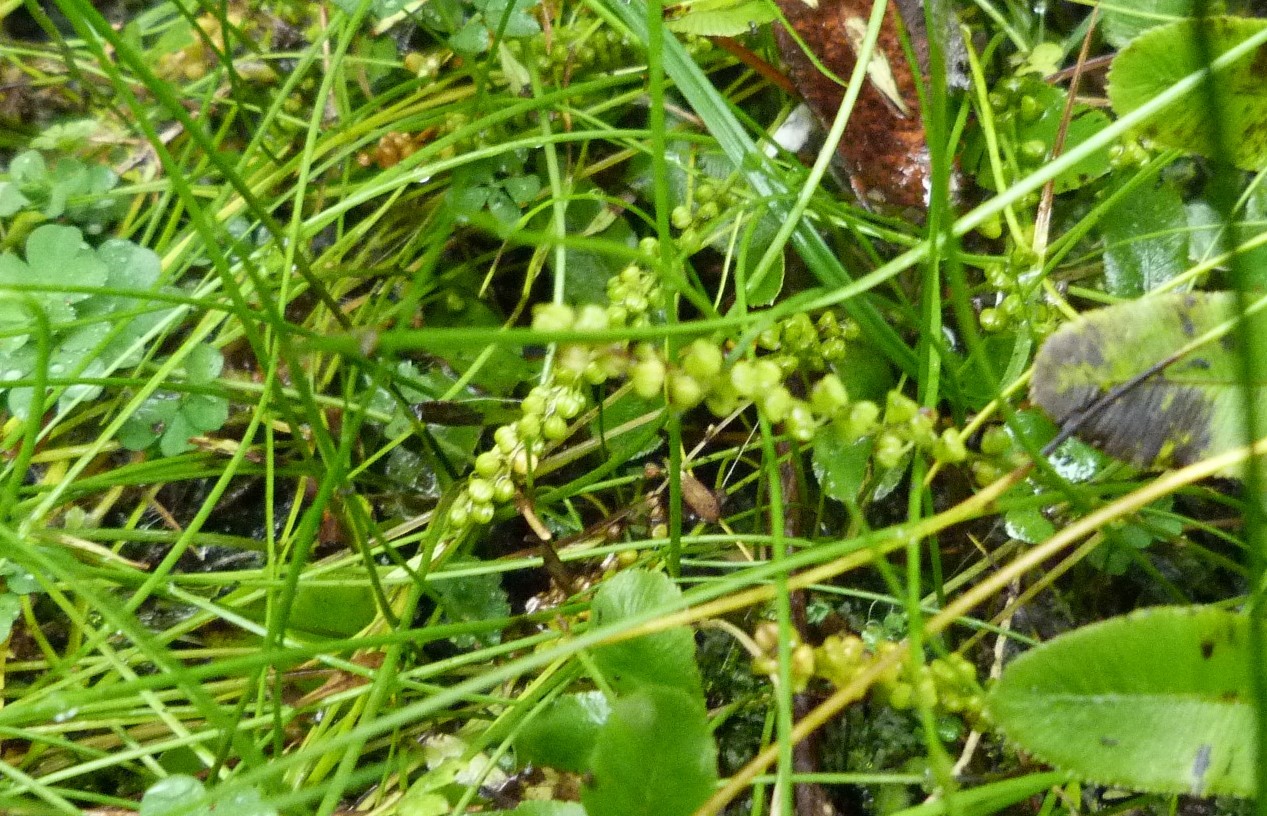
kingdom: Plantae
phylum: Tracheophyta
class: Liliopsida
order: Alismatales
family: Juncaginaceae
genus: Triglochin
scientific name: Triglochin striata
